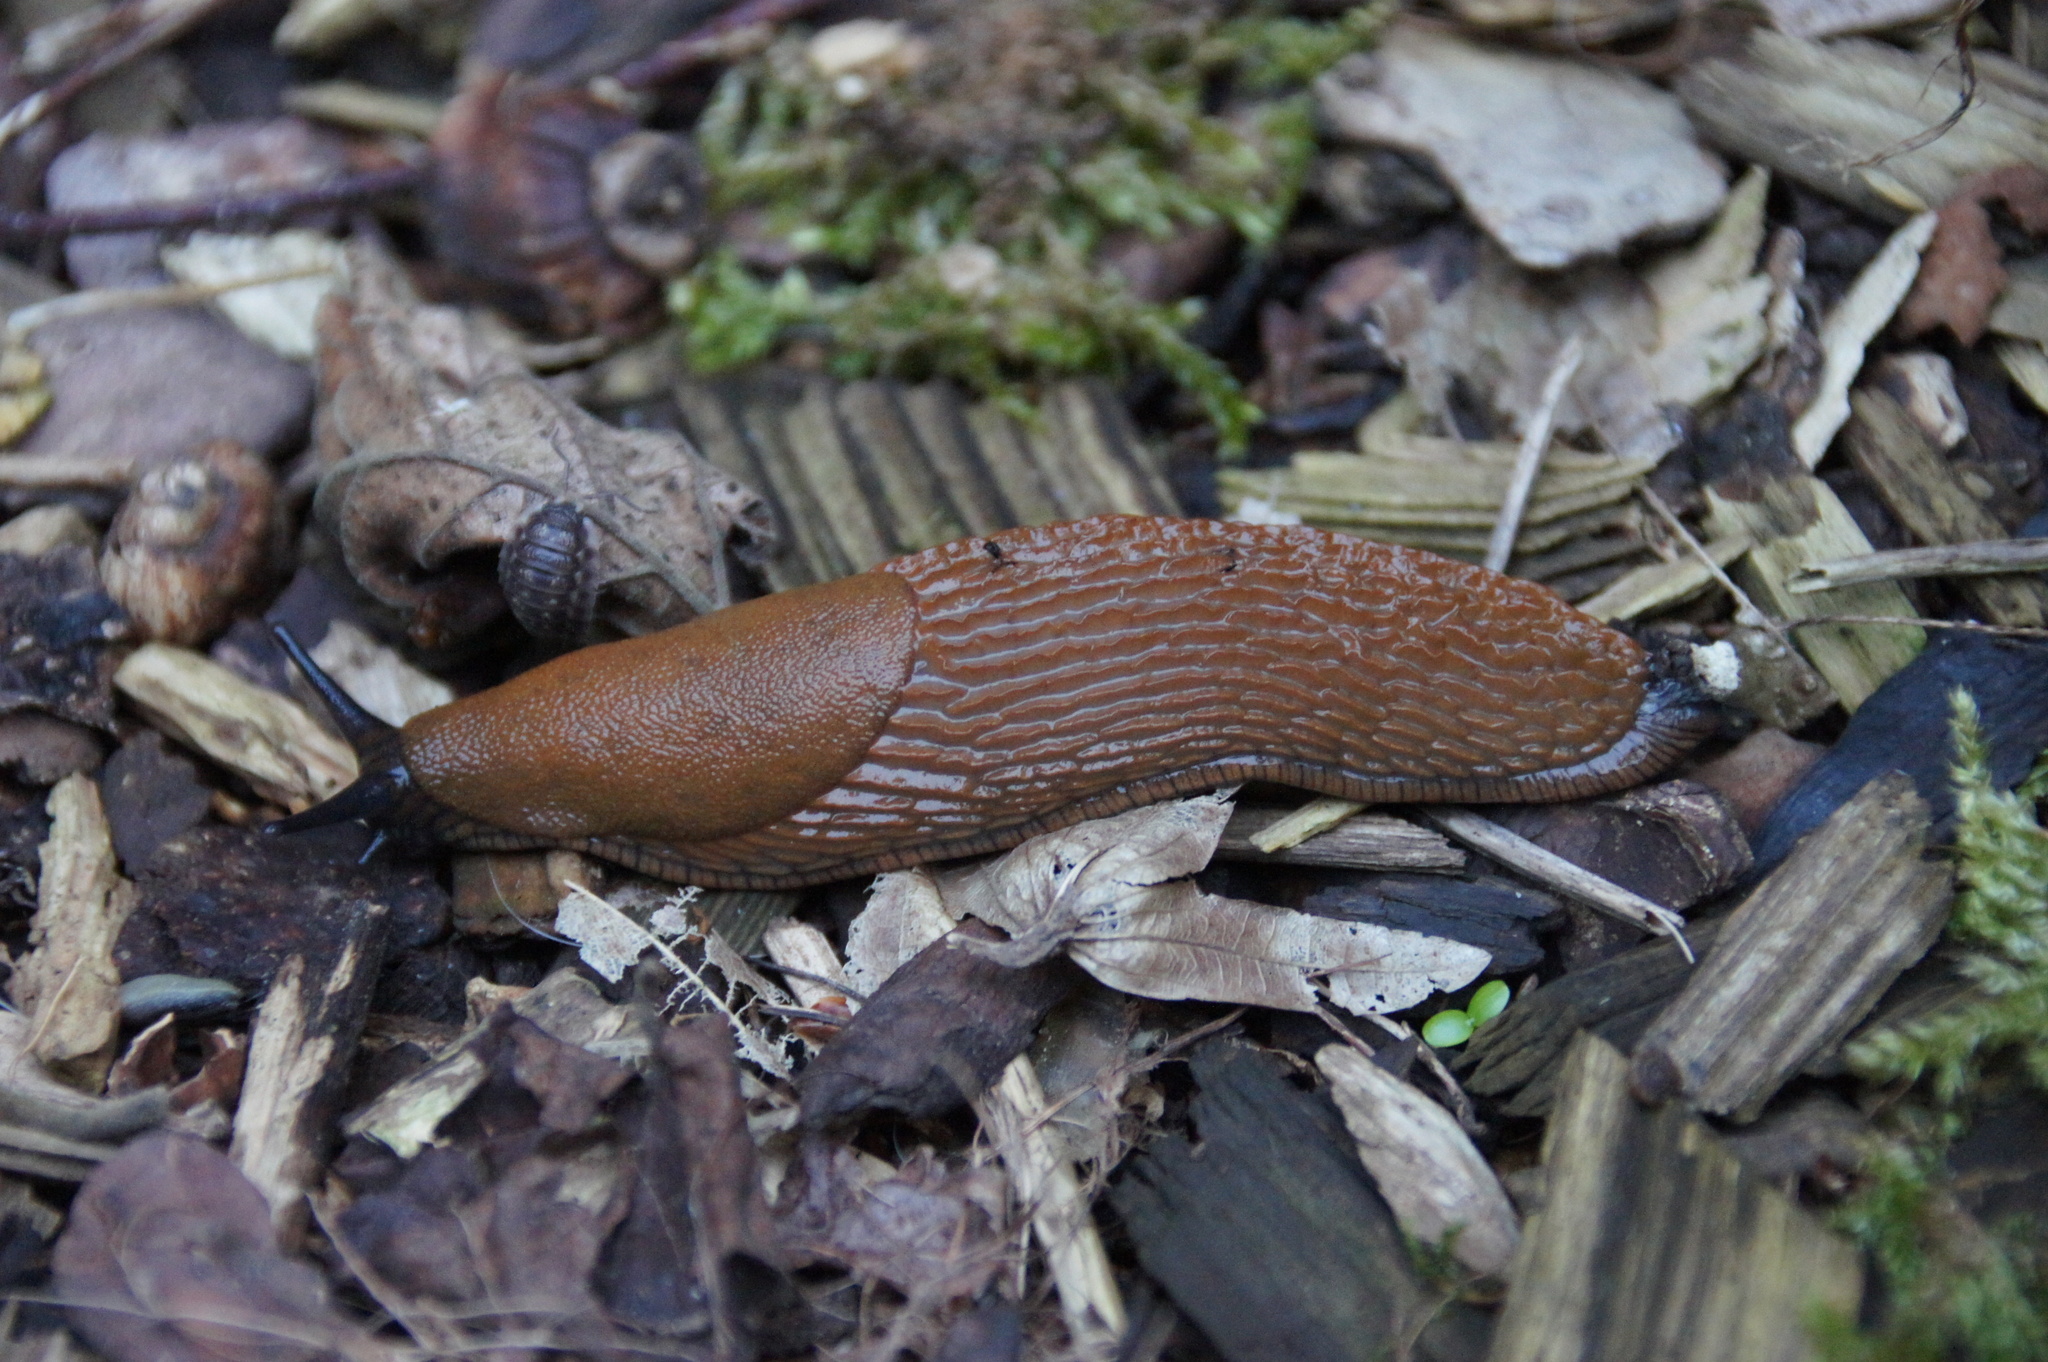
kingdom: Animalia
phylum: Mollusca
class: Gastropoda
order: Stylommatophora
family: Arionidae
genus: Arion
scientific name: Arion rufus
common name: Chocolate arion
